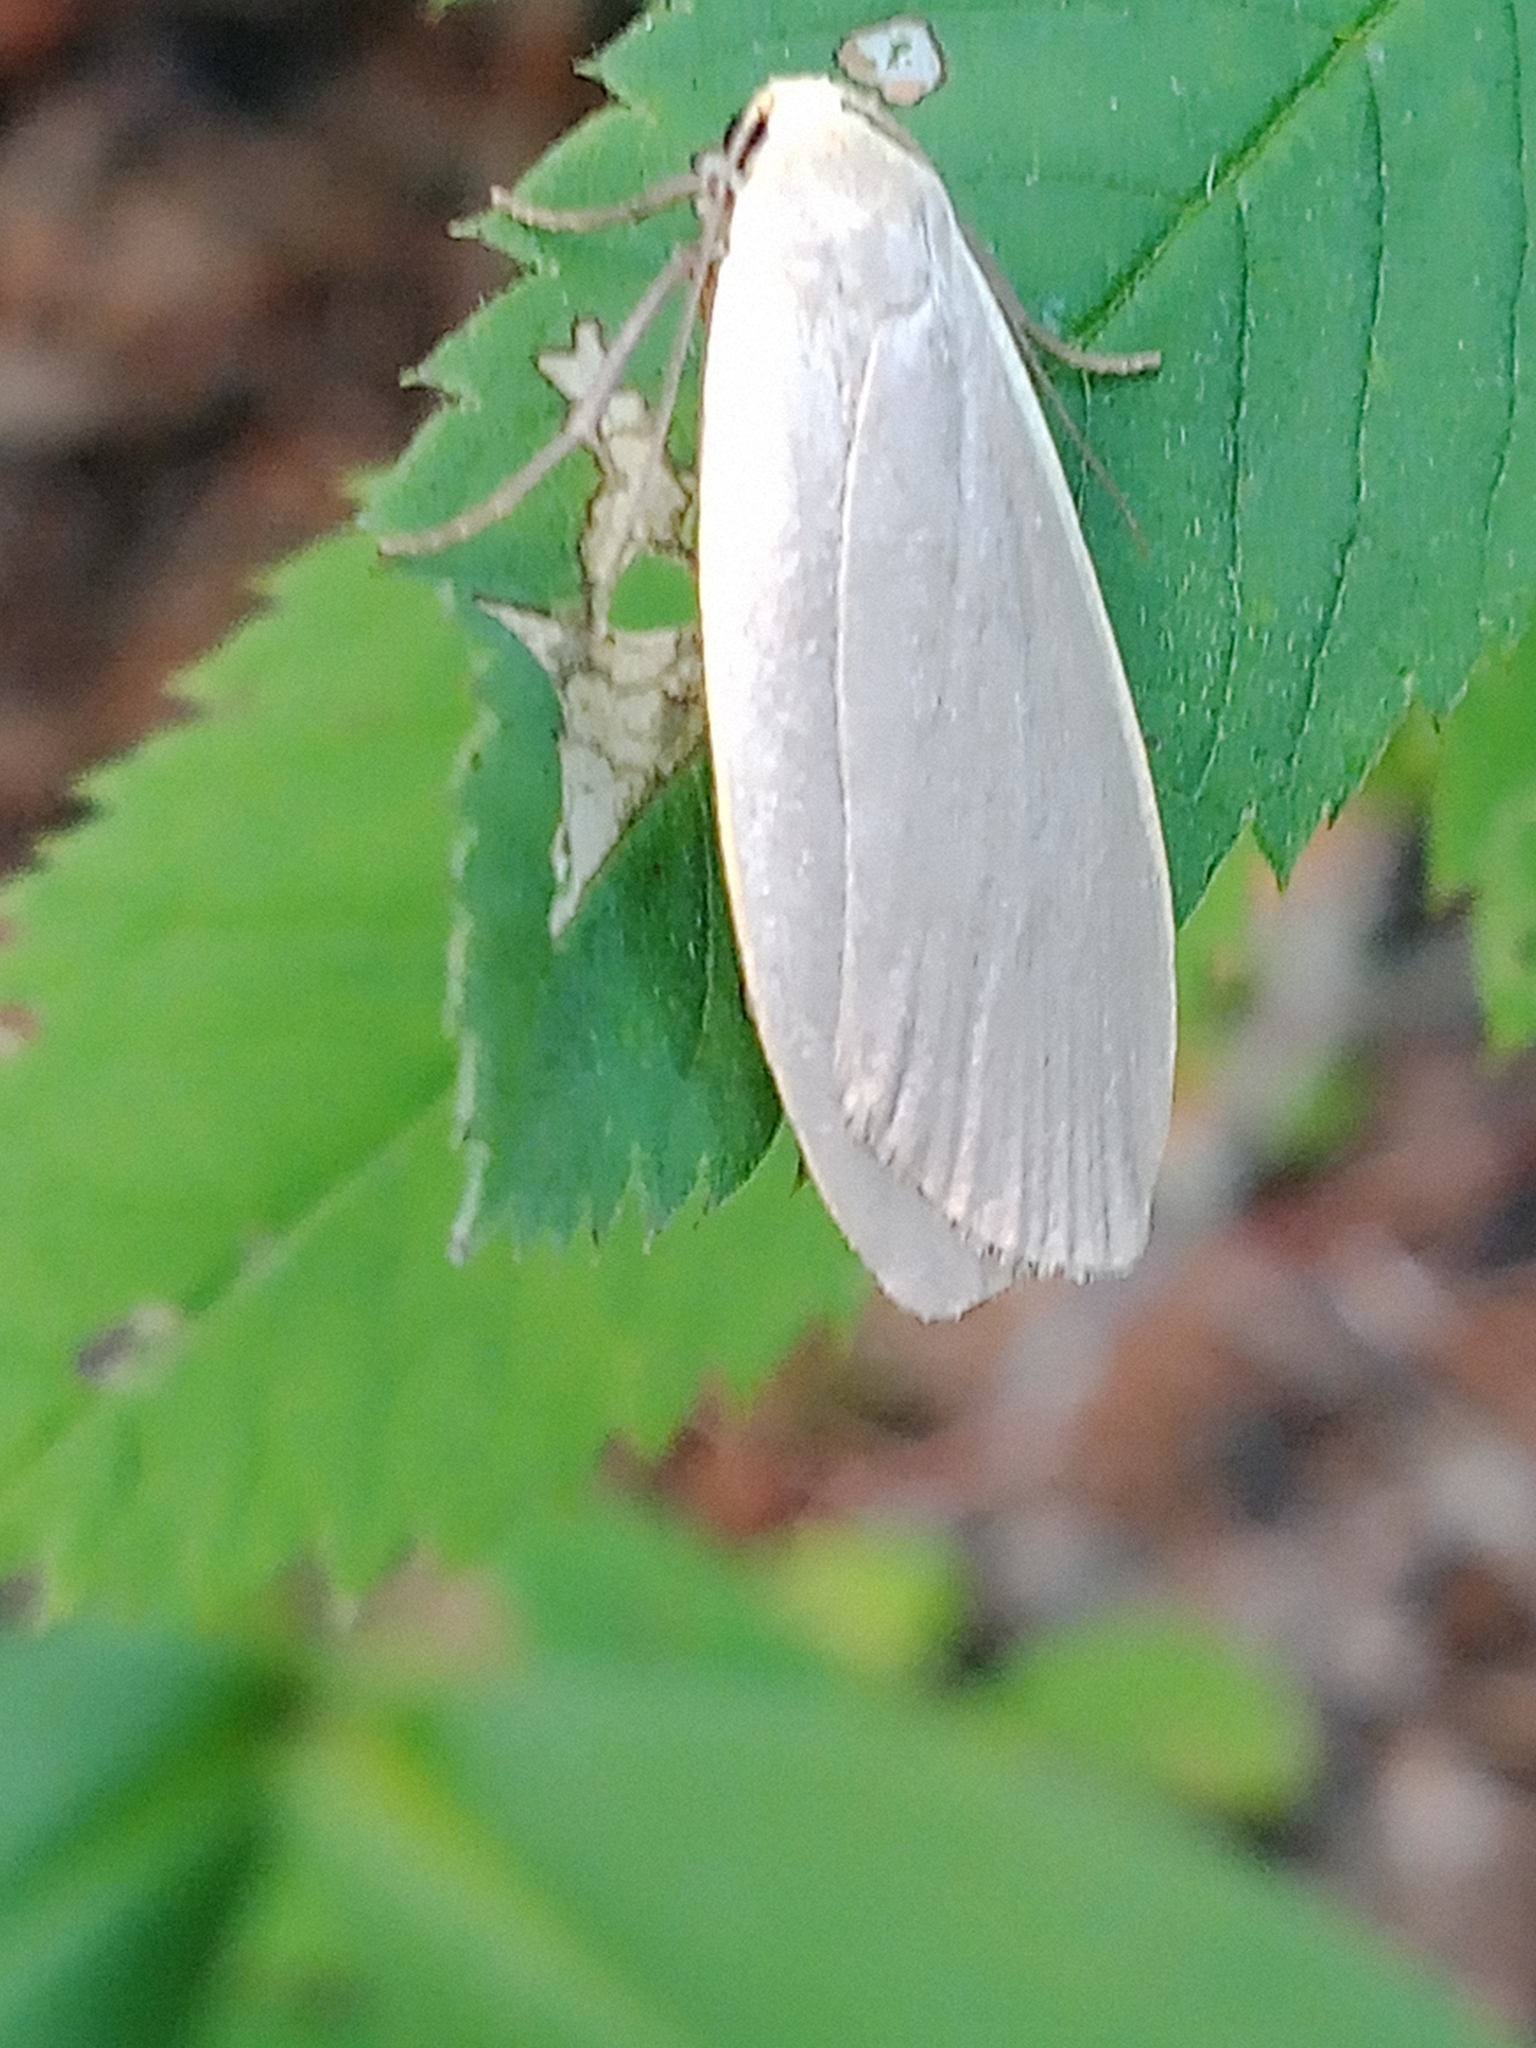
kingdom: Animalia
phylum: Arthropoda
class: Insecta
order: Lepidoptera
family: Erebidae
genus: Collita
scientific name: Collita griseola
